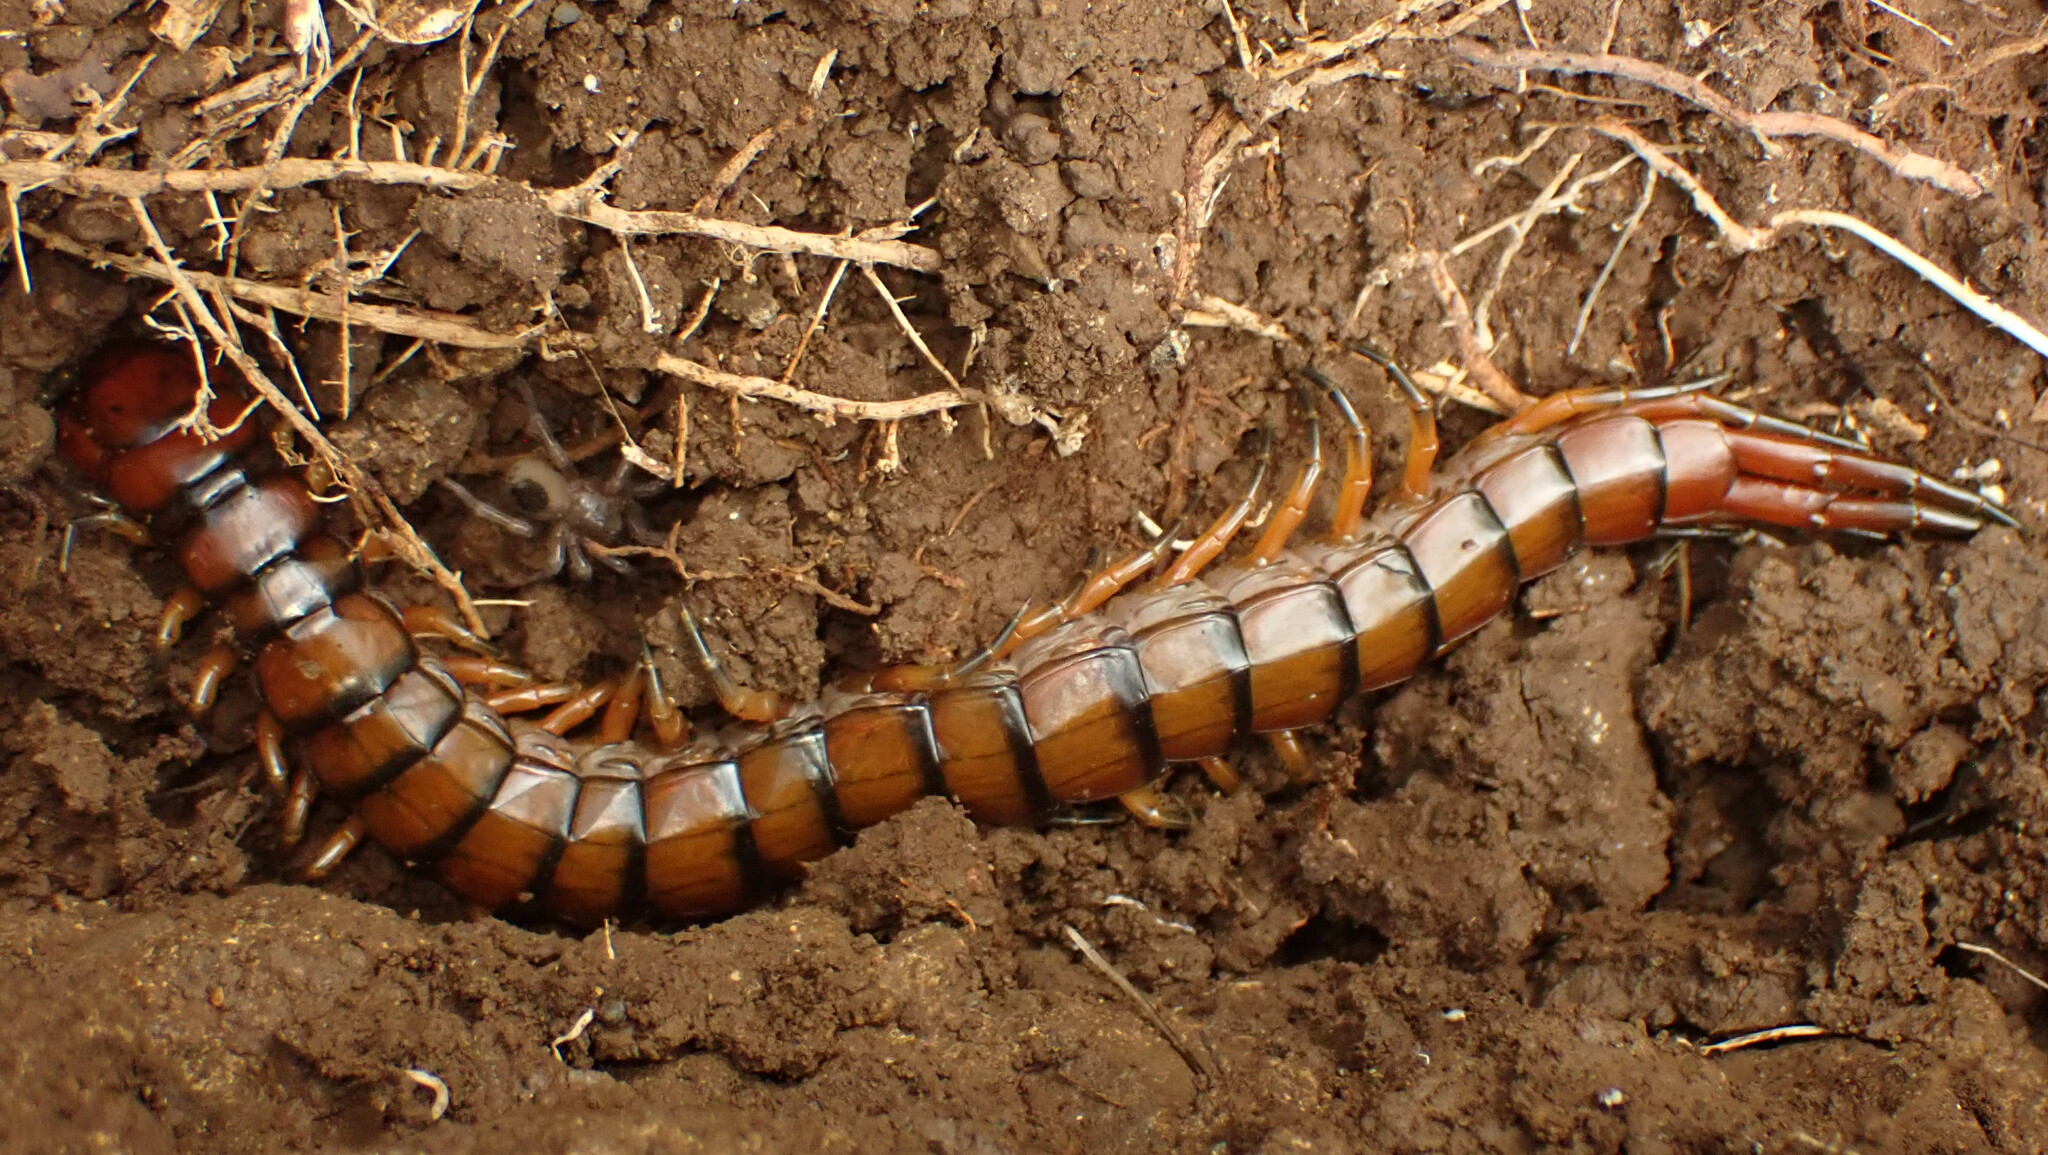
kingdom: Animalia
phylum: Arthropoda
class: Chilopoda
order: Scolopendromorpha
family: Scolopendridae
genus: Scolopendra
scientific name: Scolopendra alternans
